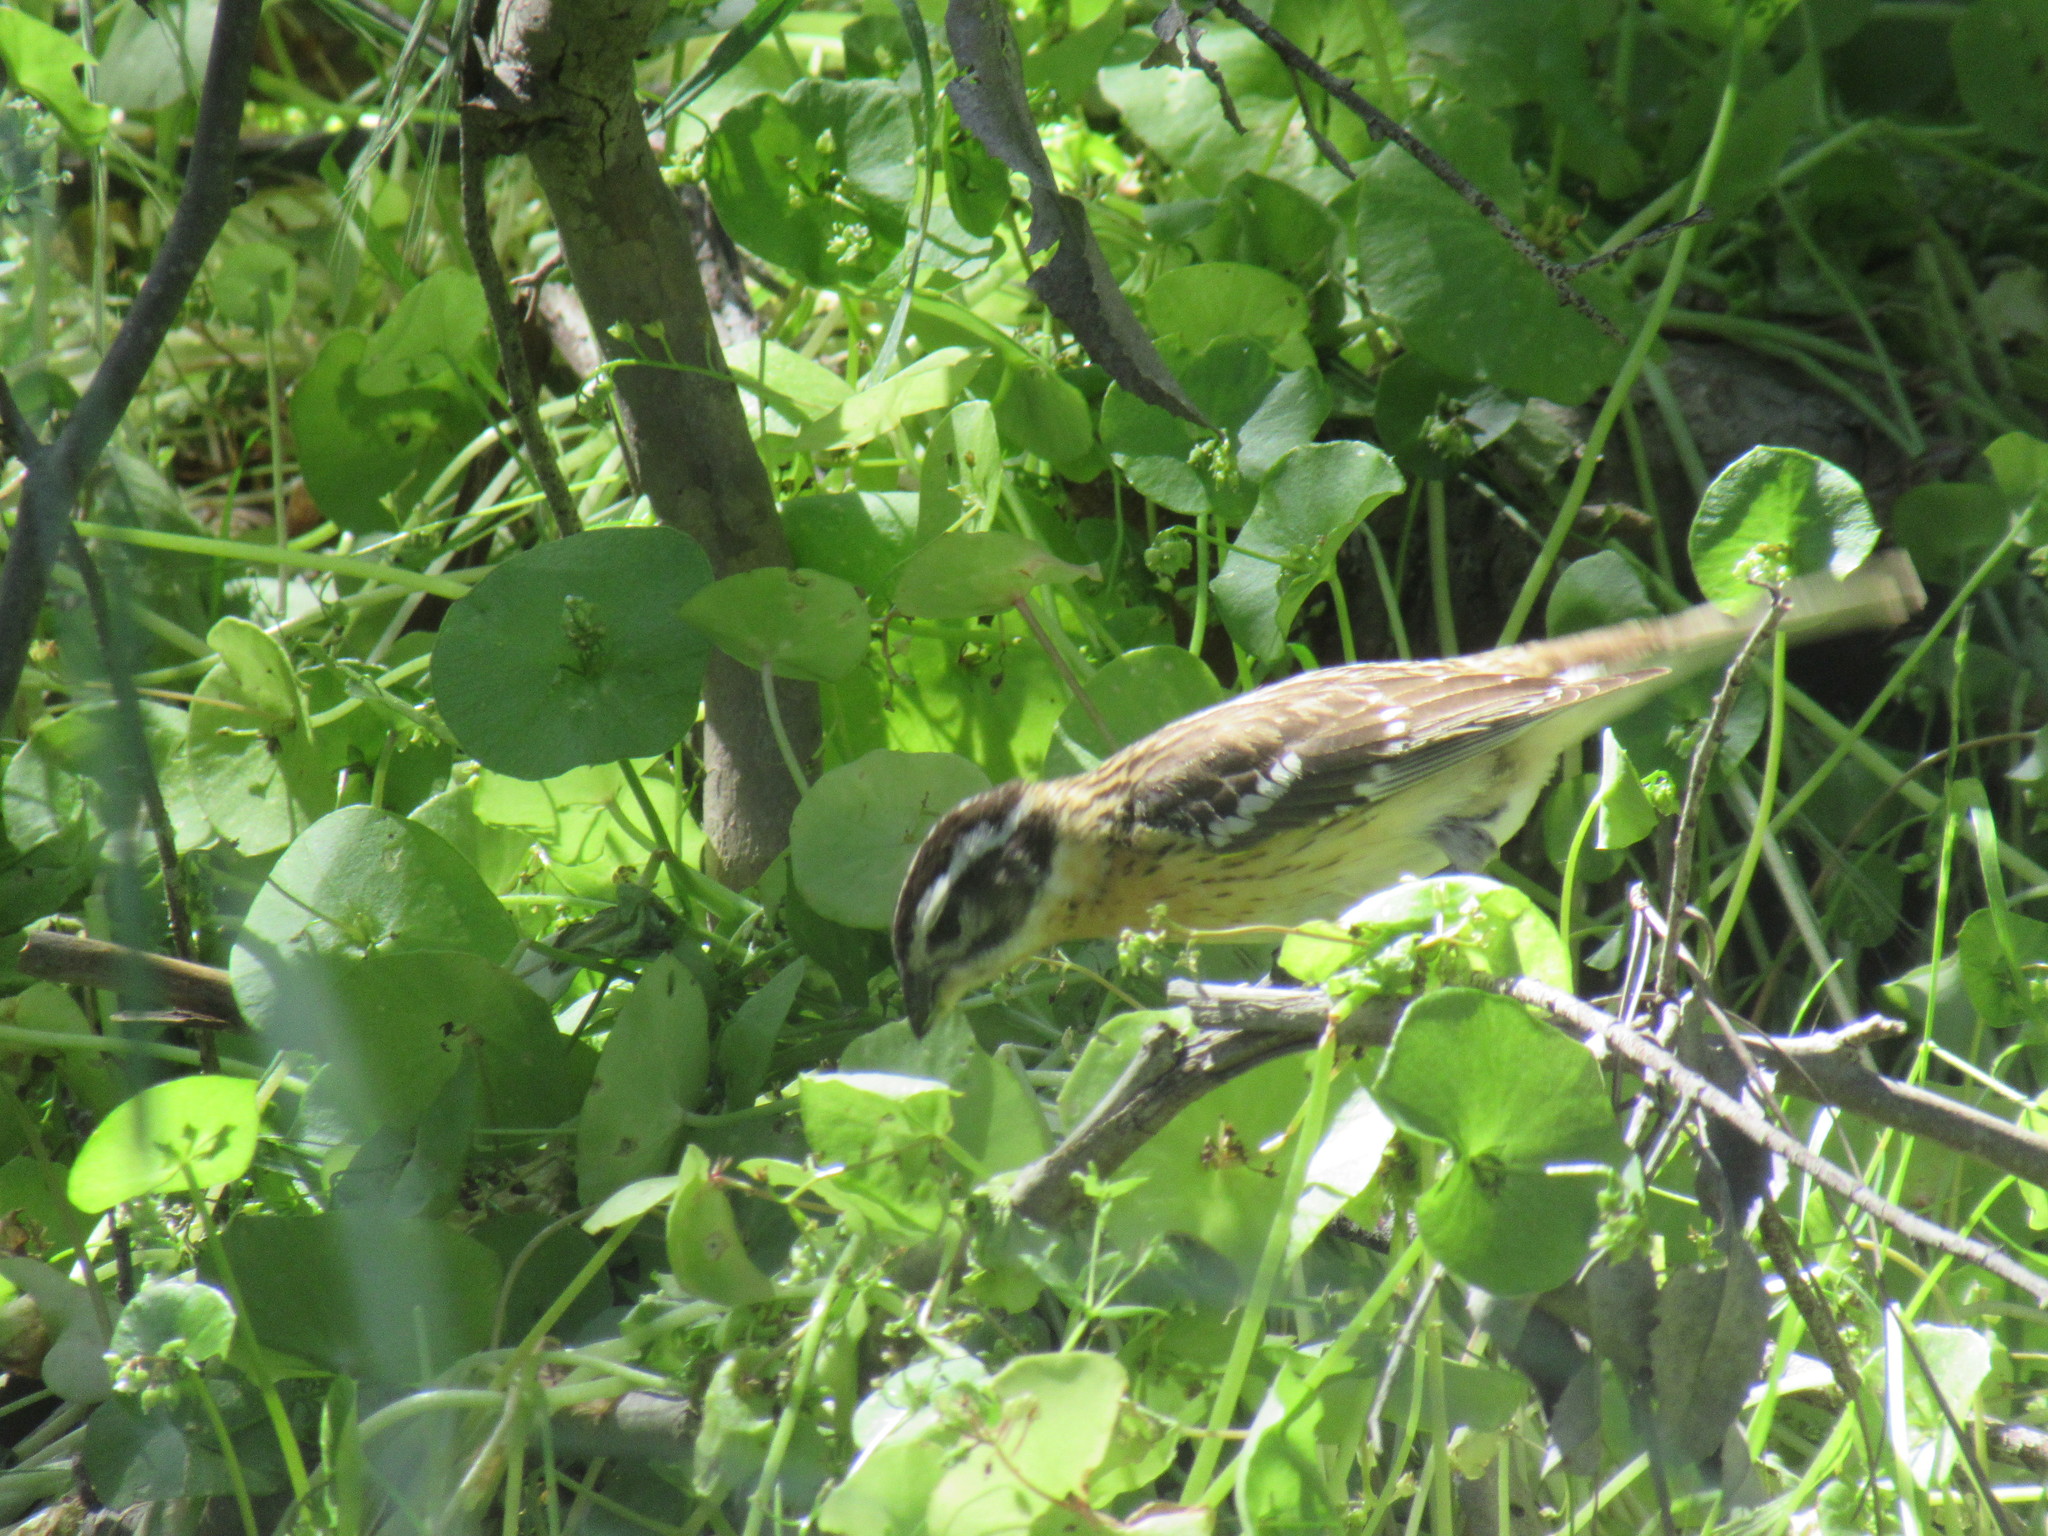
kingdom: Animalia
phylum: Chordata
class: Aves
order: Passeriformes
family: Cardinalidae
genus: Pheucticus
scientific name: Pheucticus melanocephalus
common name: Black-headed grosbeak
